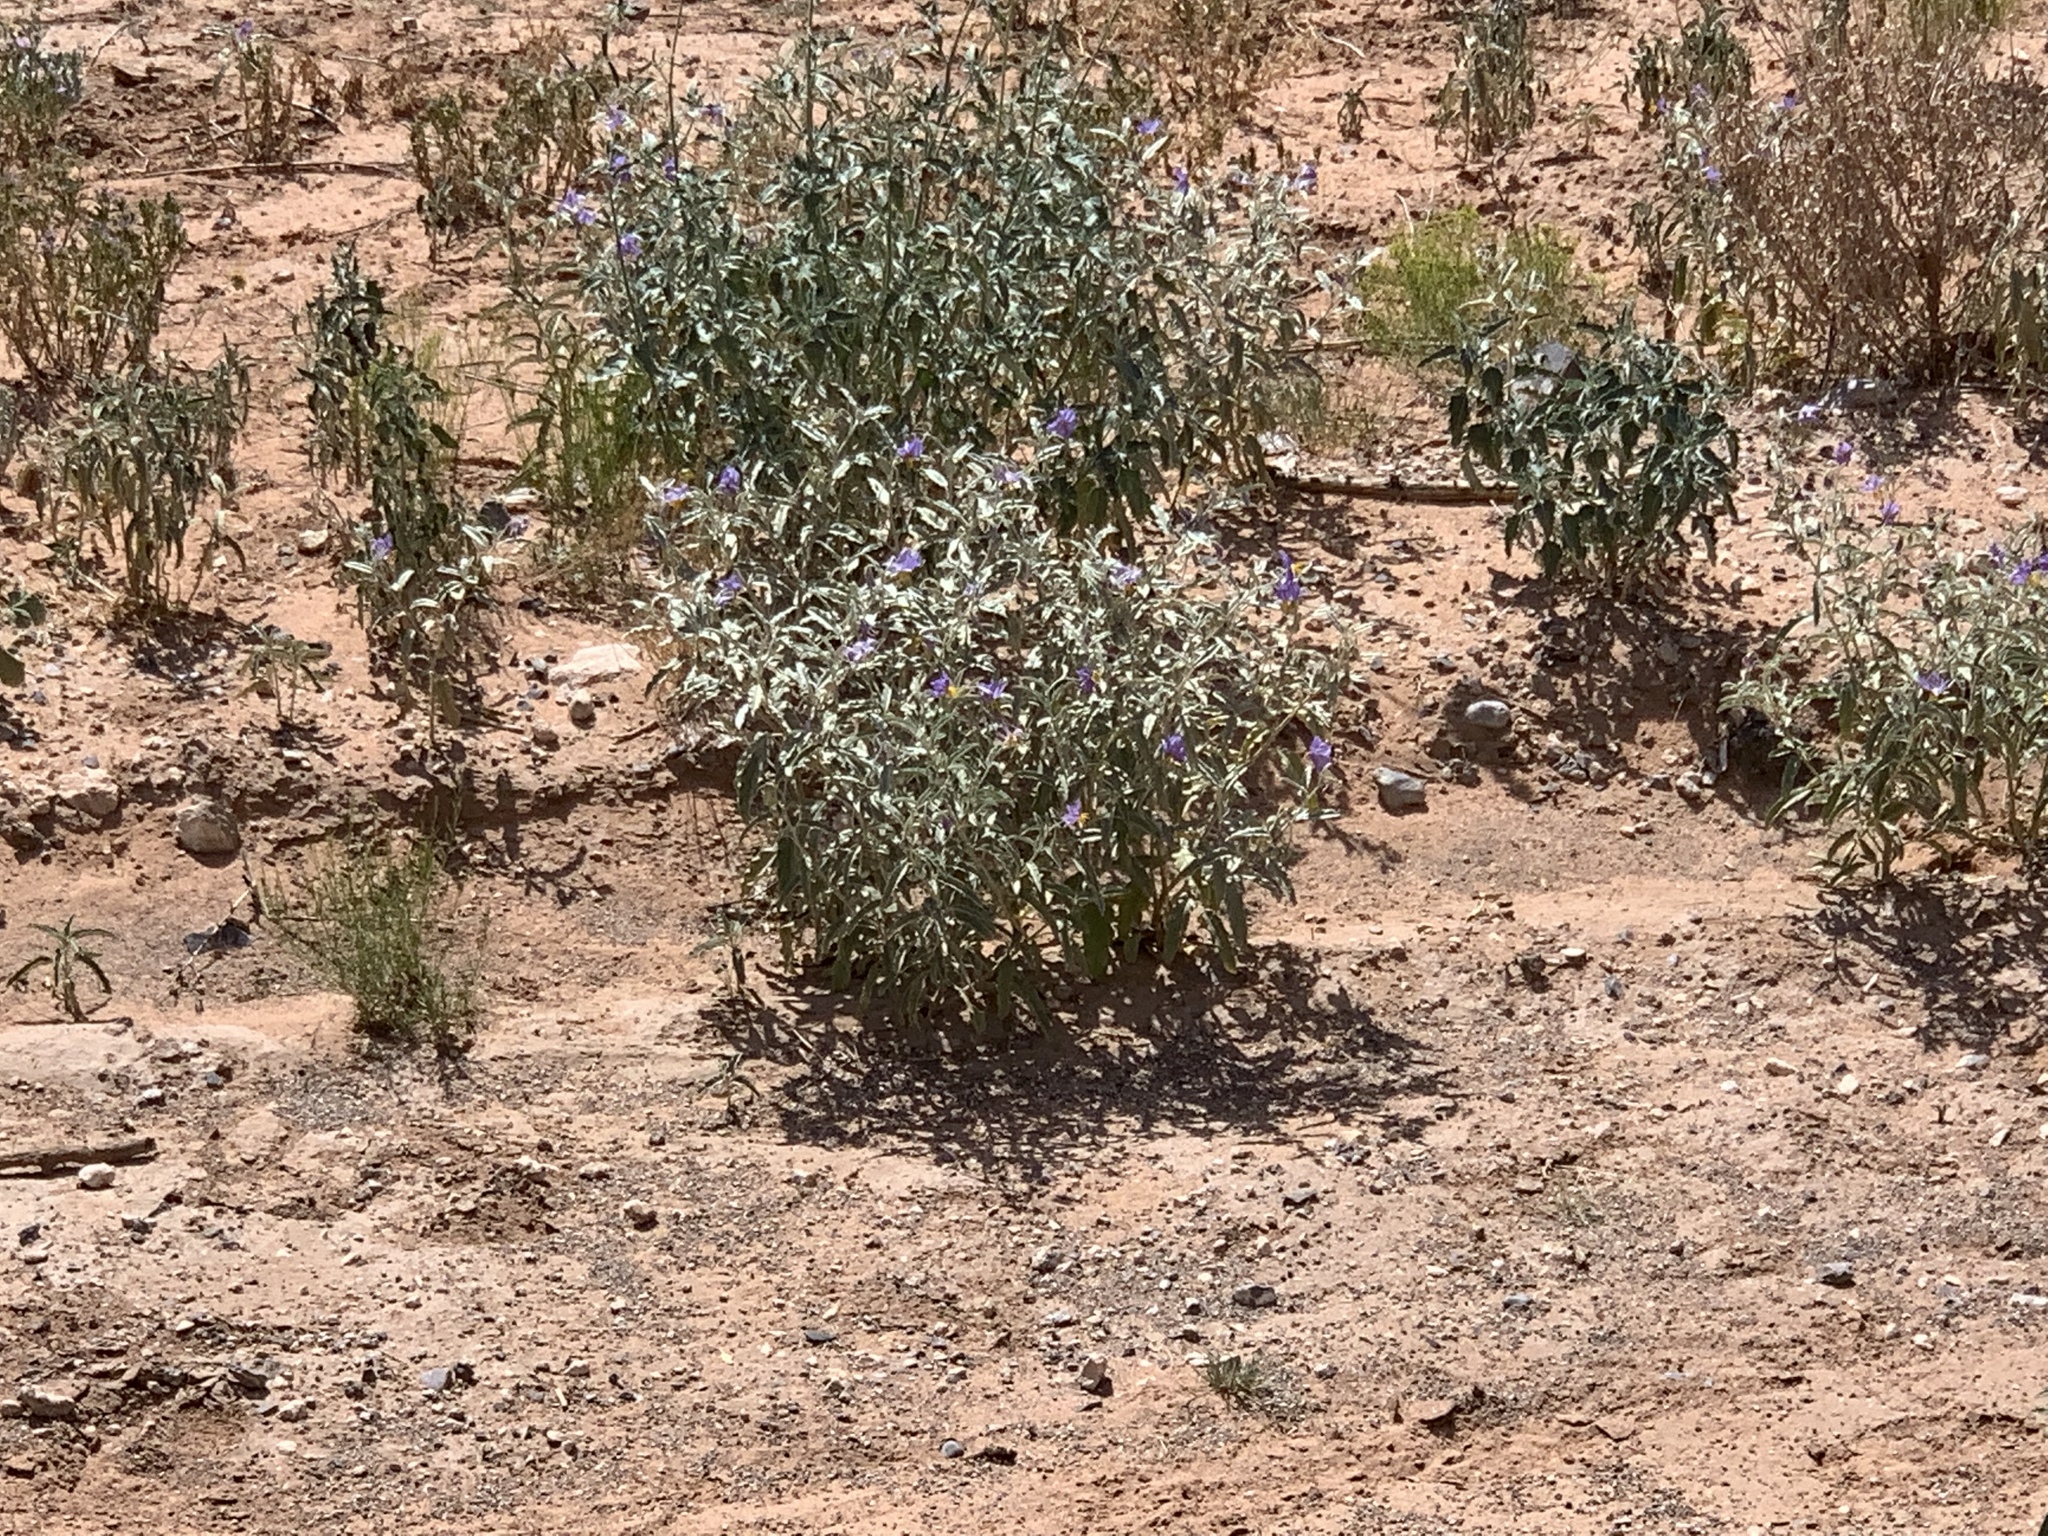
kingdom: Plantae
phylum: Tracheophyta
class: Magnoliopsida
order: Solanales
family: Solanaceae
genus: Solanum
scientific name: Solanum elaeagnifolium
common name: Silverleaf nightshade
